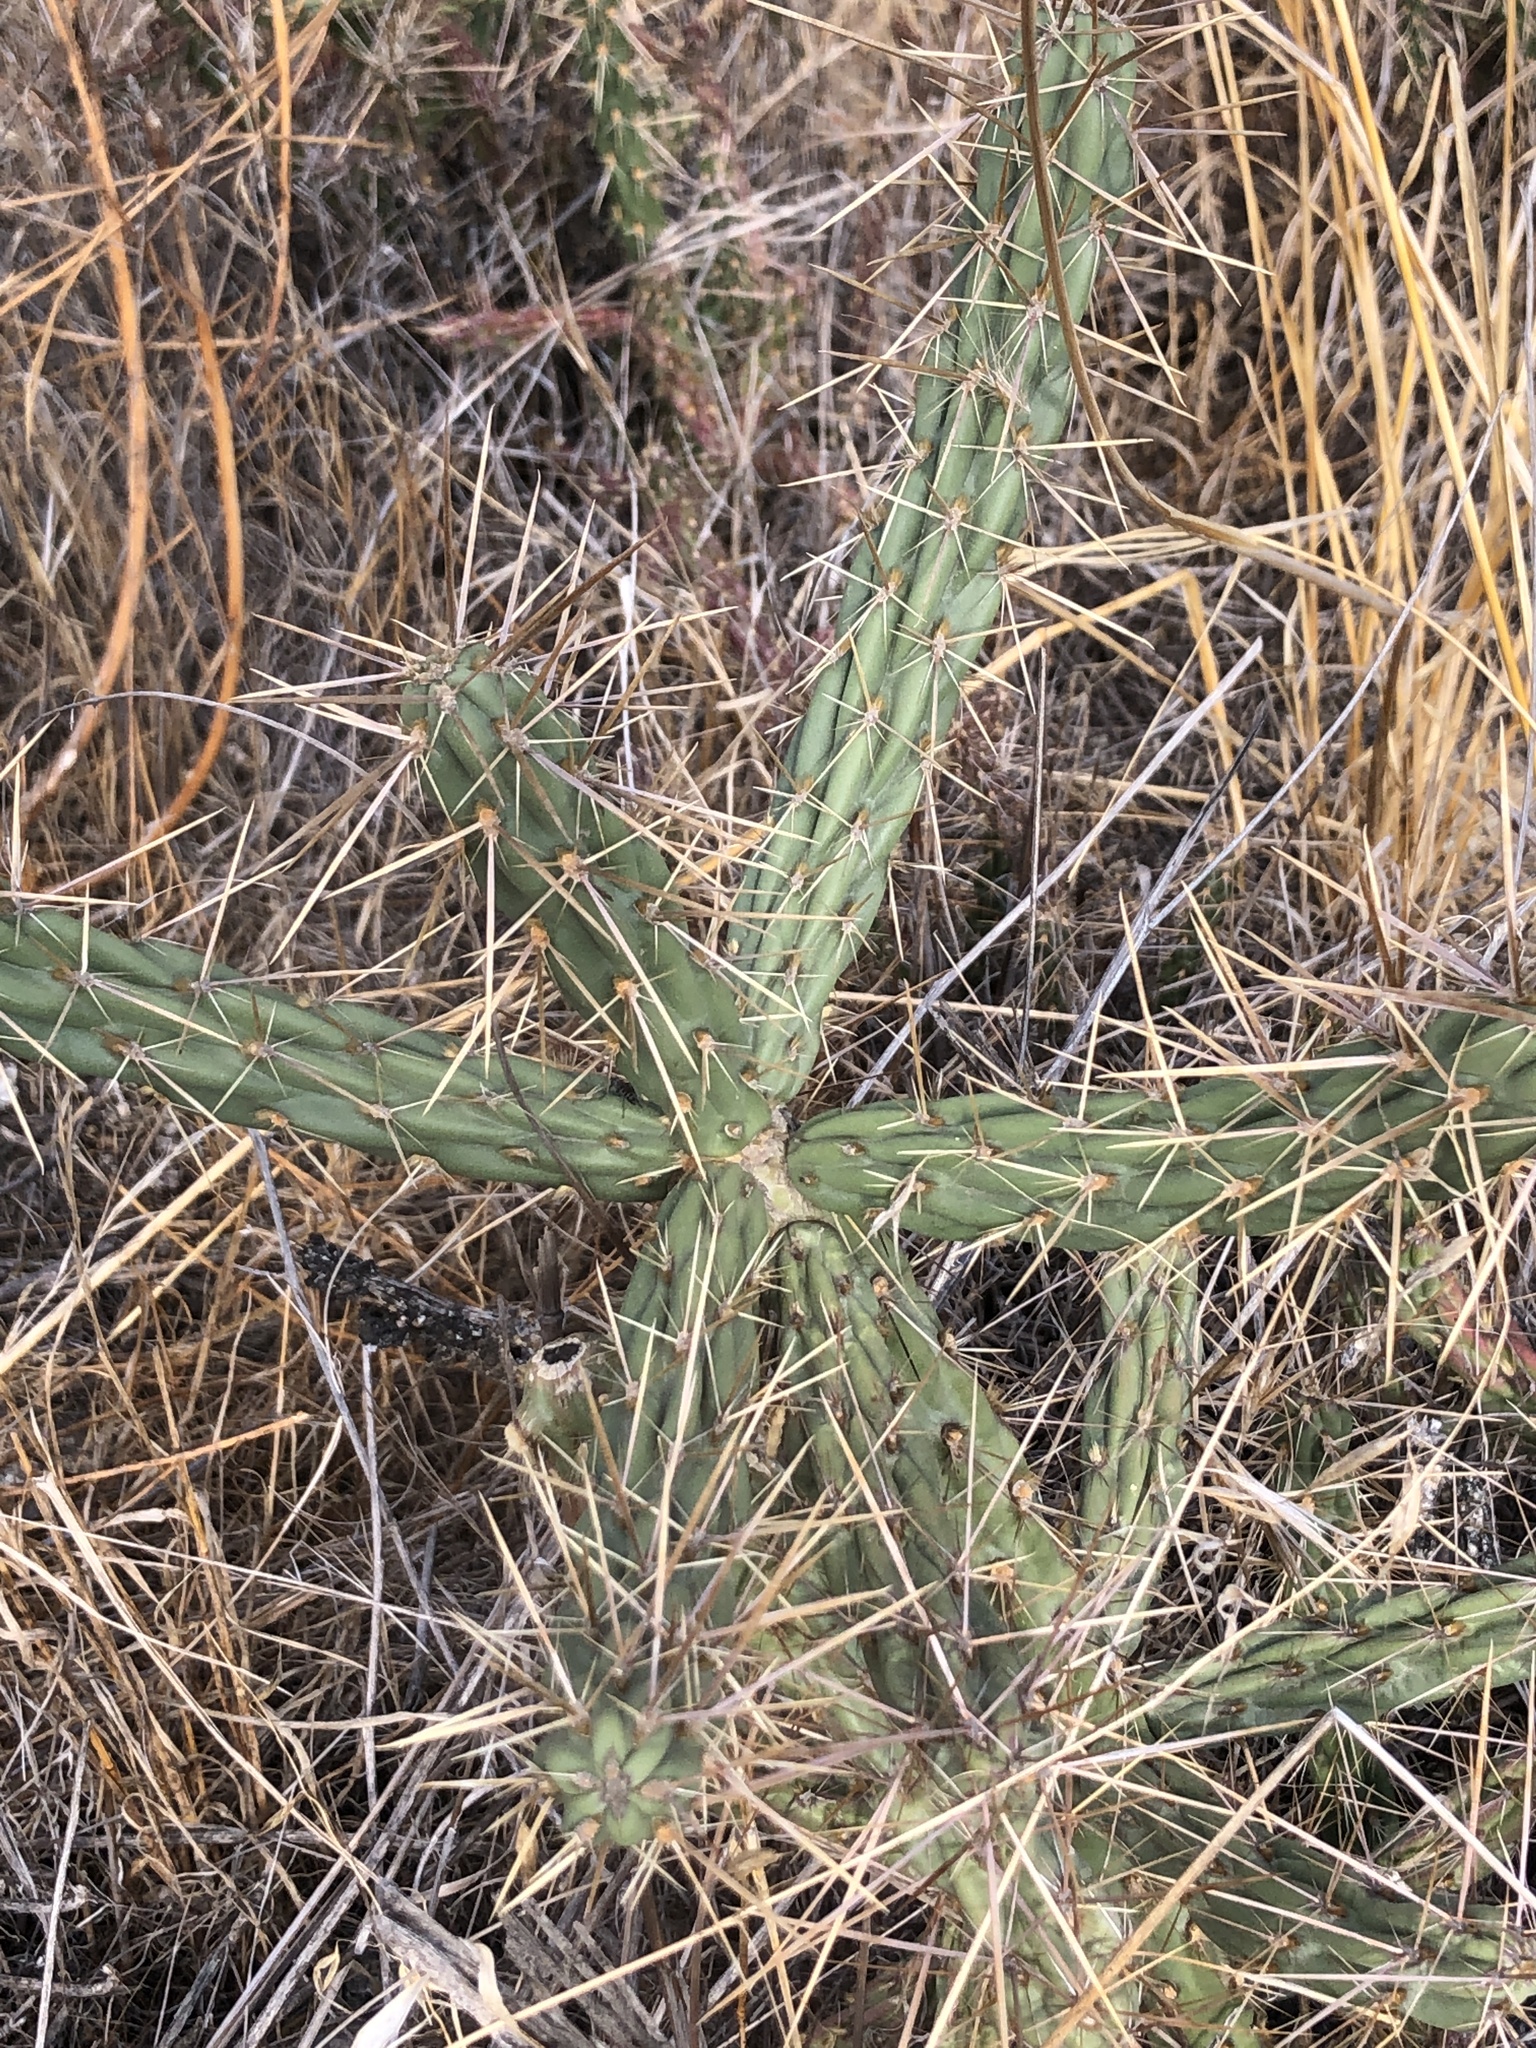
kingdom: Plantae
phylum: Tracheophyta
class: Magnoliopsida
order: Caryophyllales
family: Cactaceae
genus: Cylindropuntia
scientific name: Cylindropuntia bernardina
